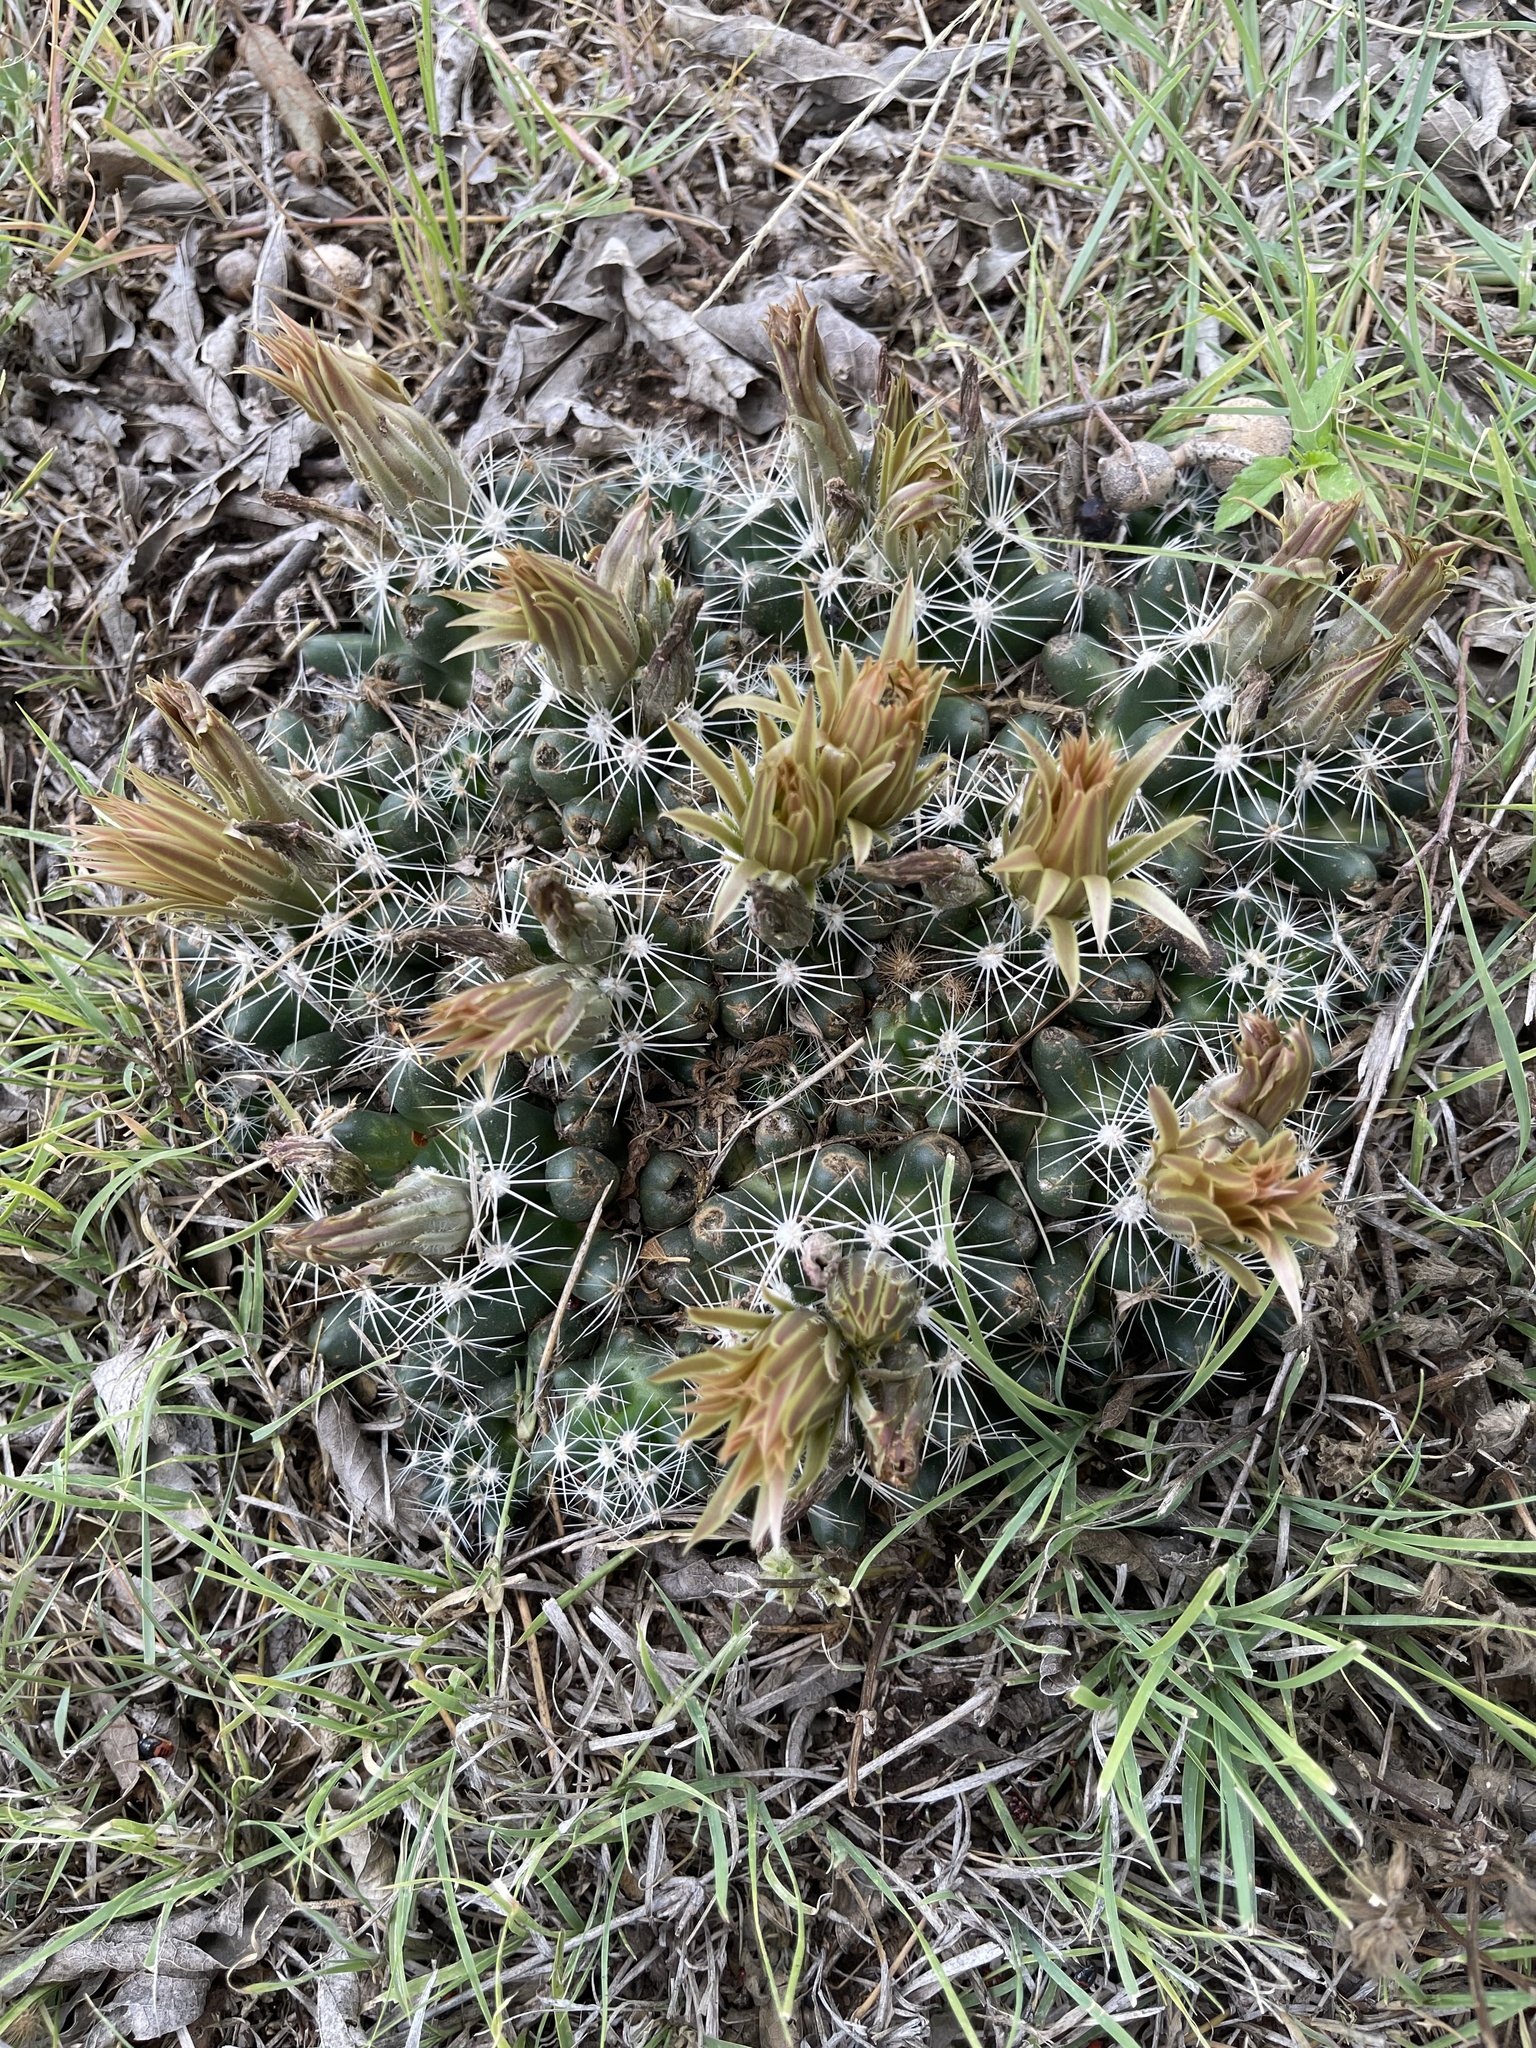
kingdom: Plantae
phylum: Tracheophyta
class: Magnoliopsida
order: Caryophyllales
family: Cactaceae
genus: Pelecyphora
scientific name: Pelecyphora missouriensis
